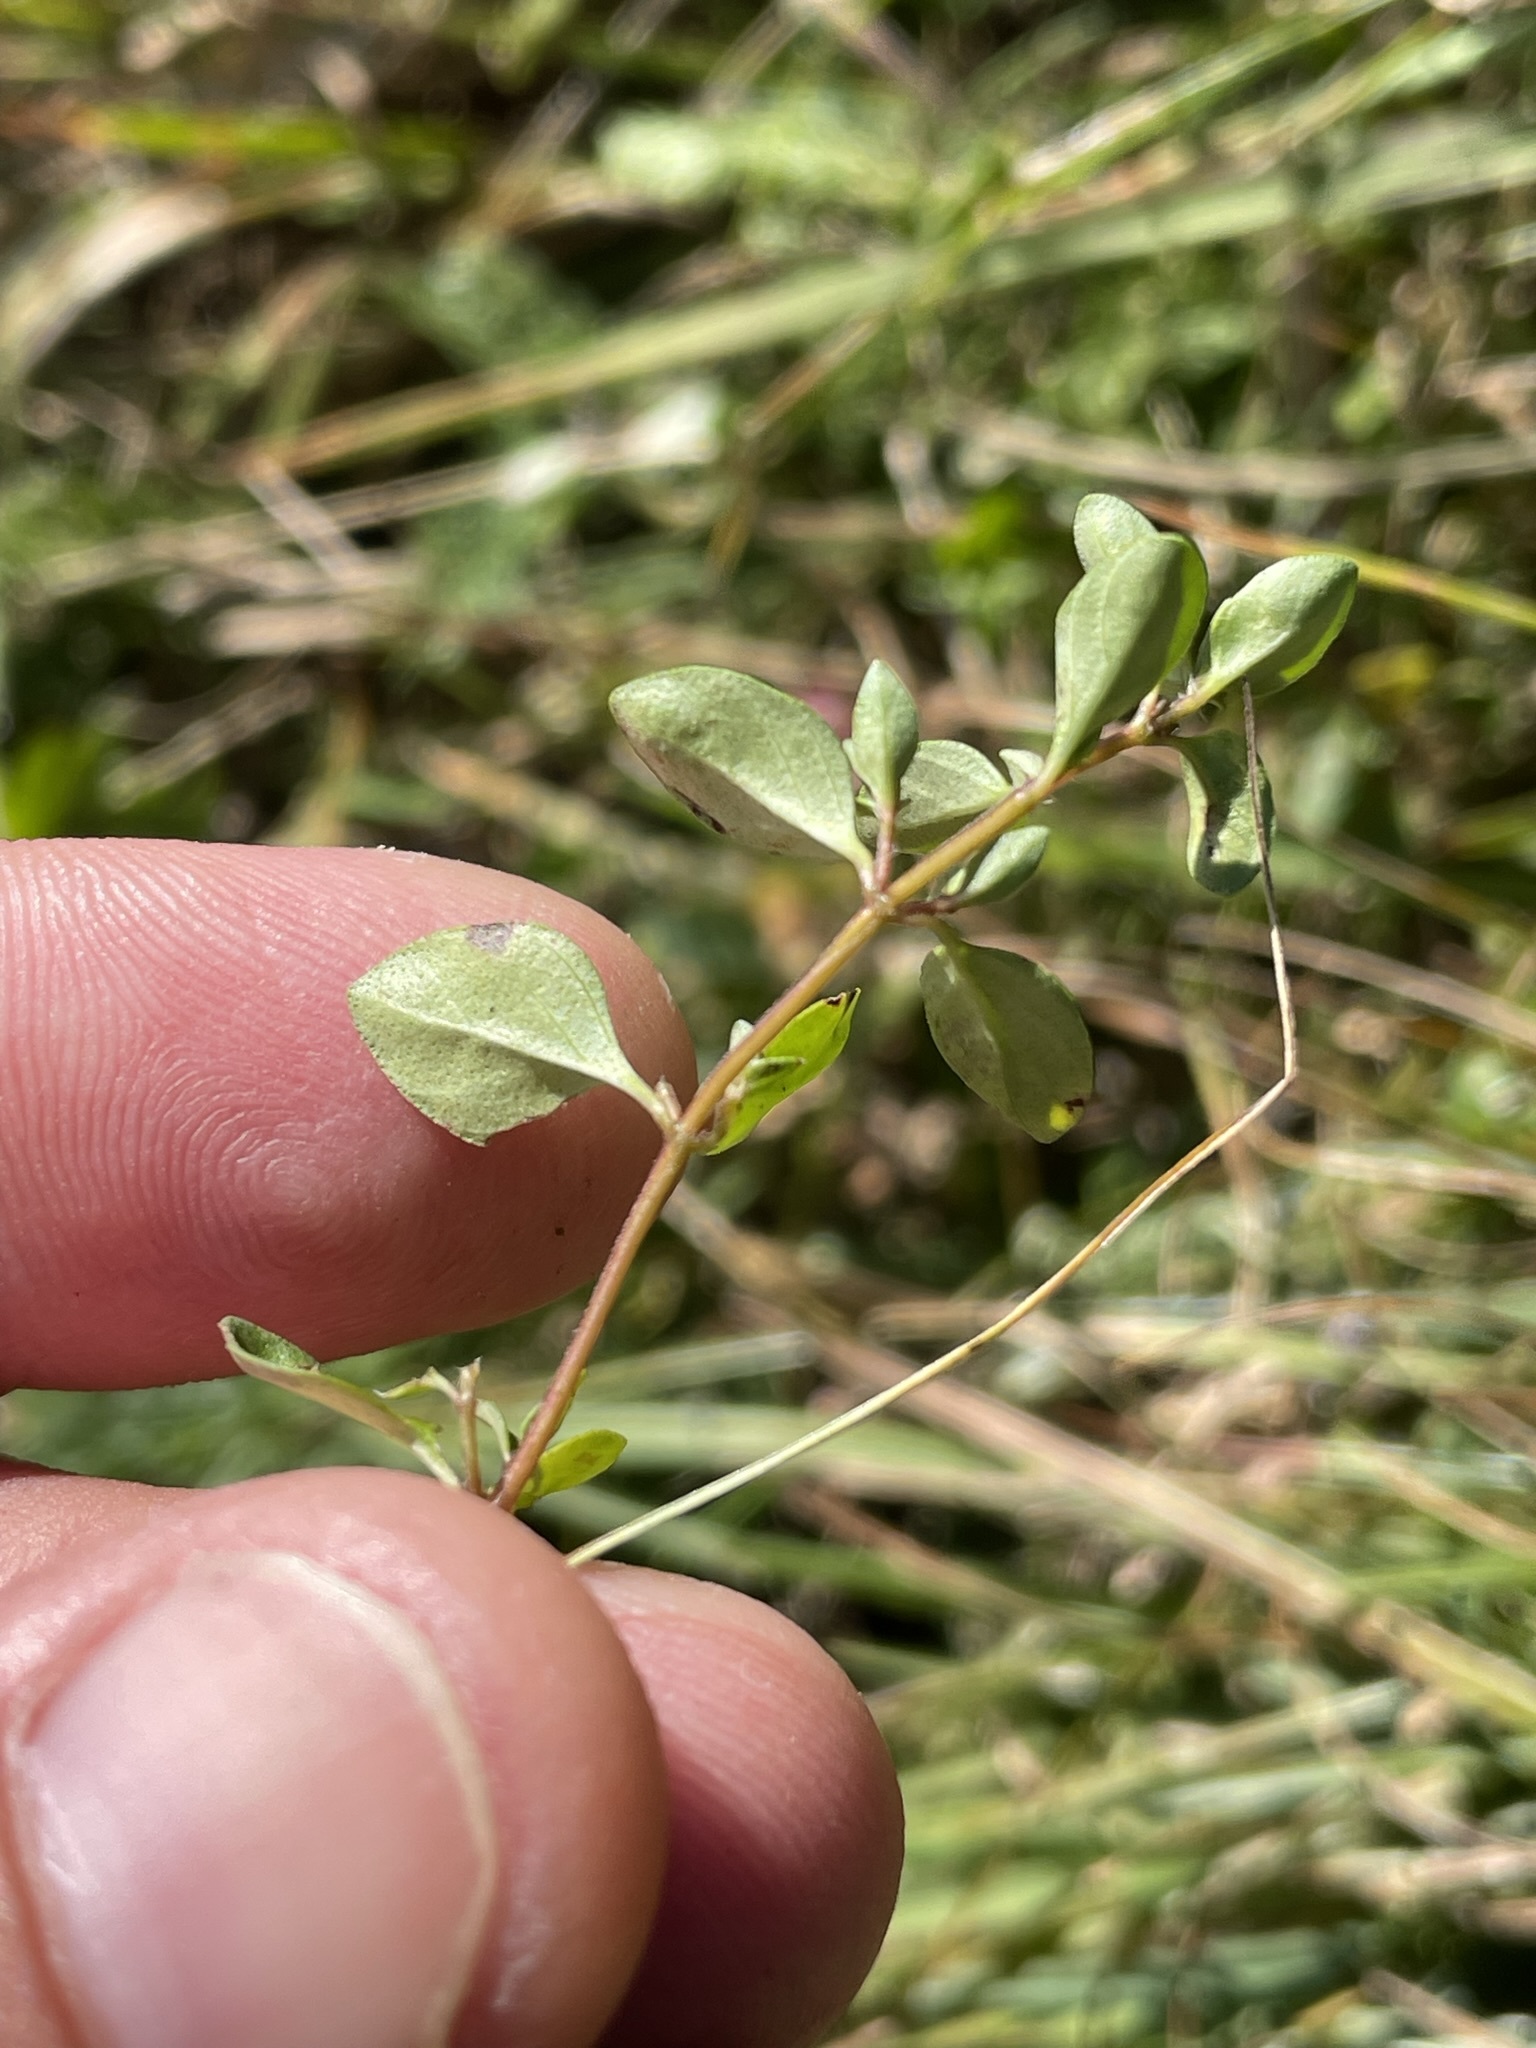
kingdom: Plantae
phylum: Tracheophyta
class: Magnoliopsida
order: Lamiales
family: Lamiaceae
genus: Thymus
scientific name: Thymus pulegioides
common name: Large thyme
